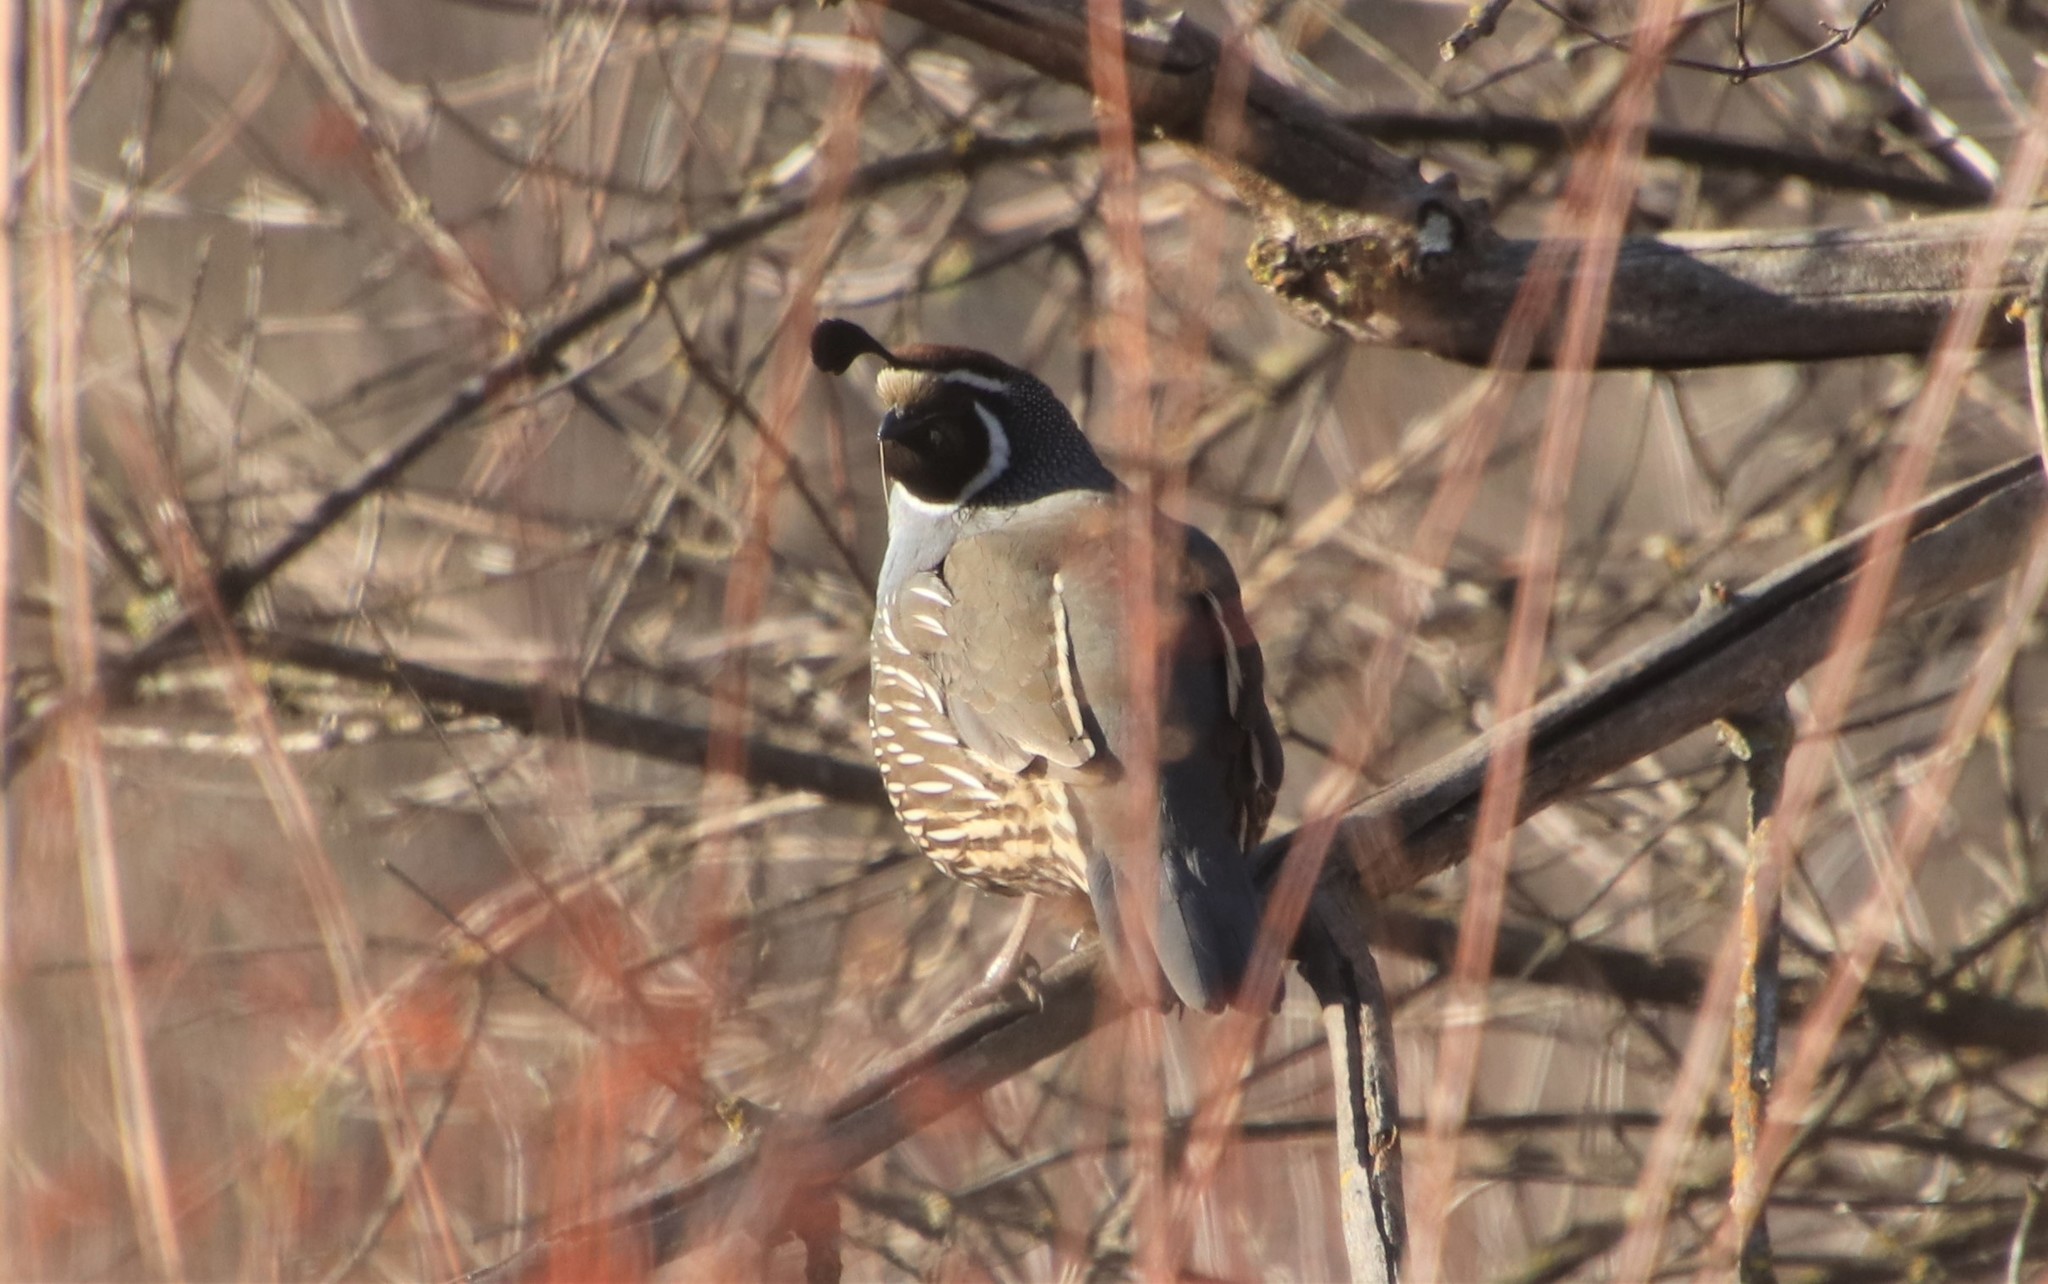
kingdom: Animalia
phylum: Chordata
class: Aves
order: Galliformes
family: Odontophoridae
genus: Callipepla
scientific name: Callipepla californica
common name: California quail
